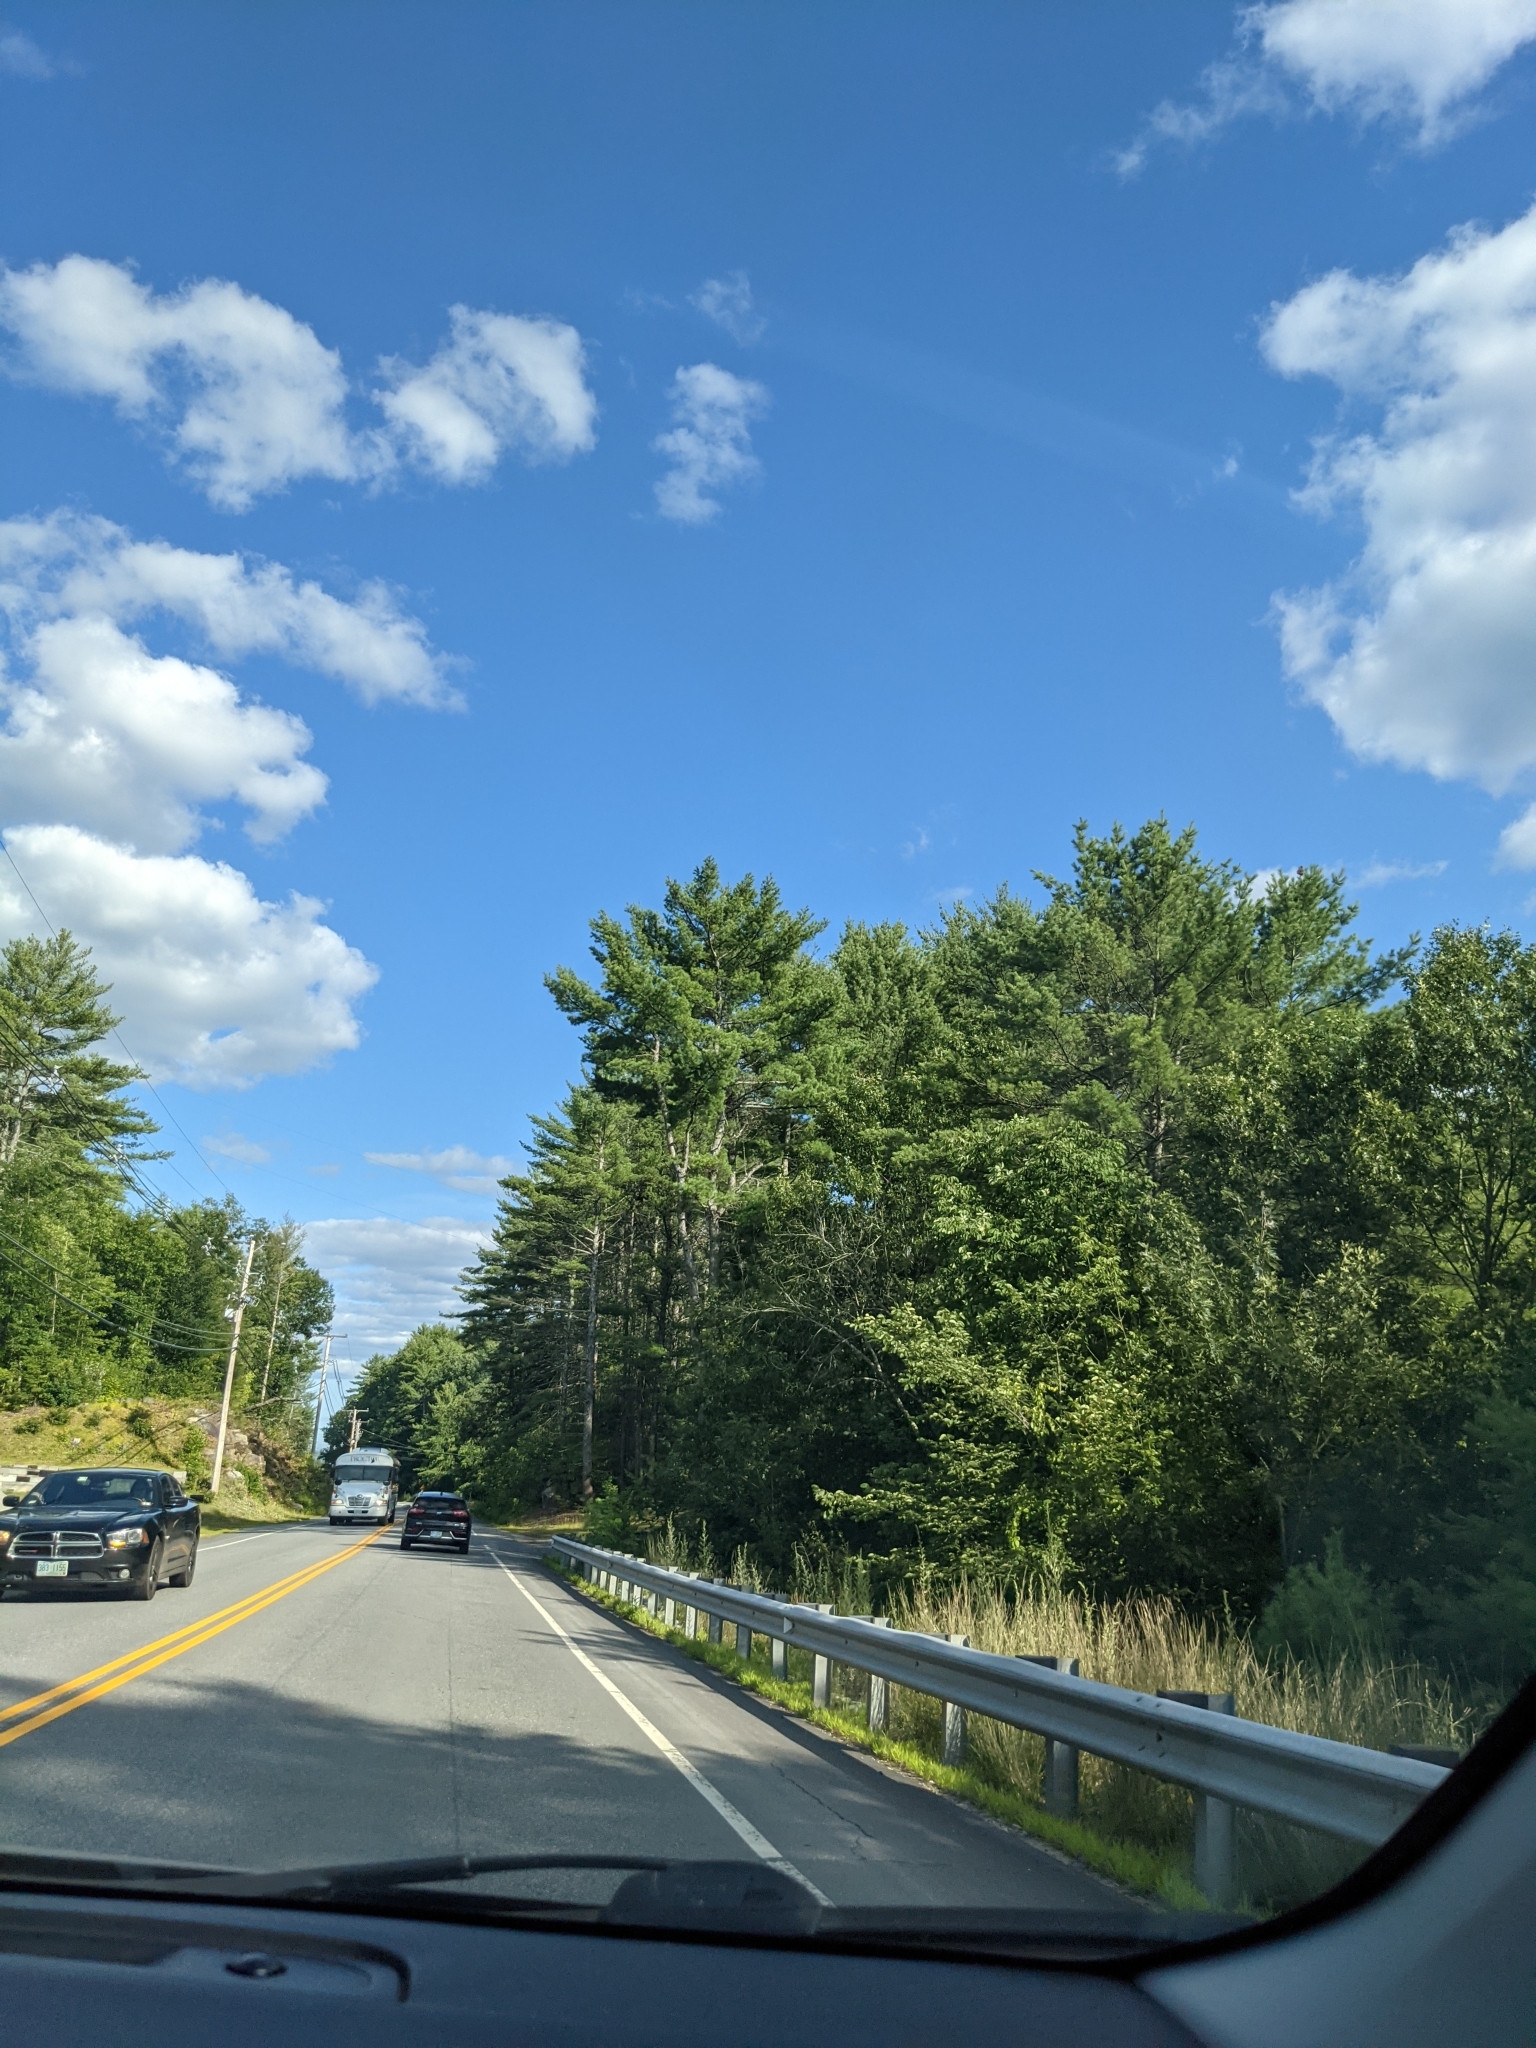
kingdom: Plantae
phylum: Tracheophyta
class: Pinopsida
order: Pinales
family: Pinaceae
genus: Pinus
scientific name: Pinus strobus
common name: Weymouth pine
